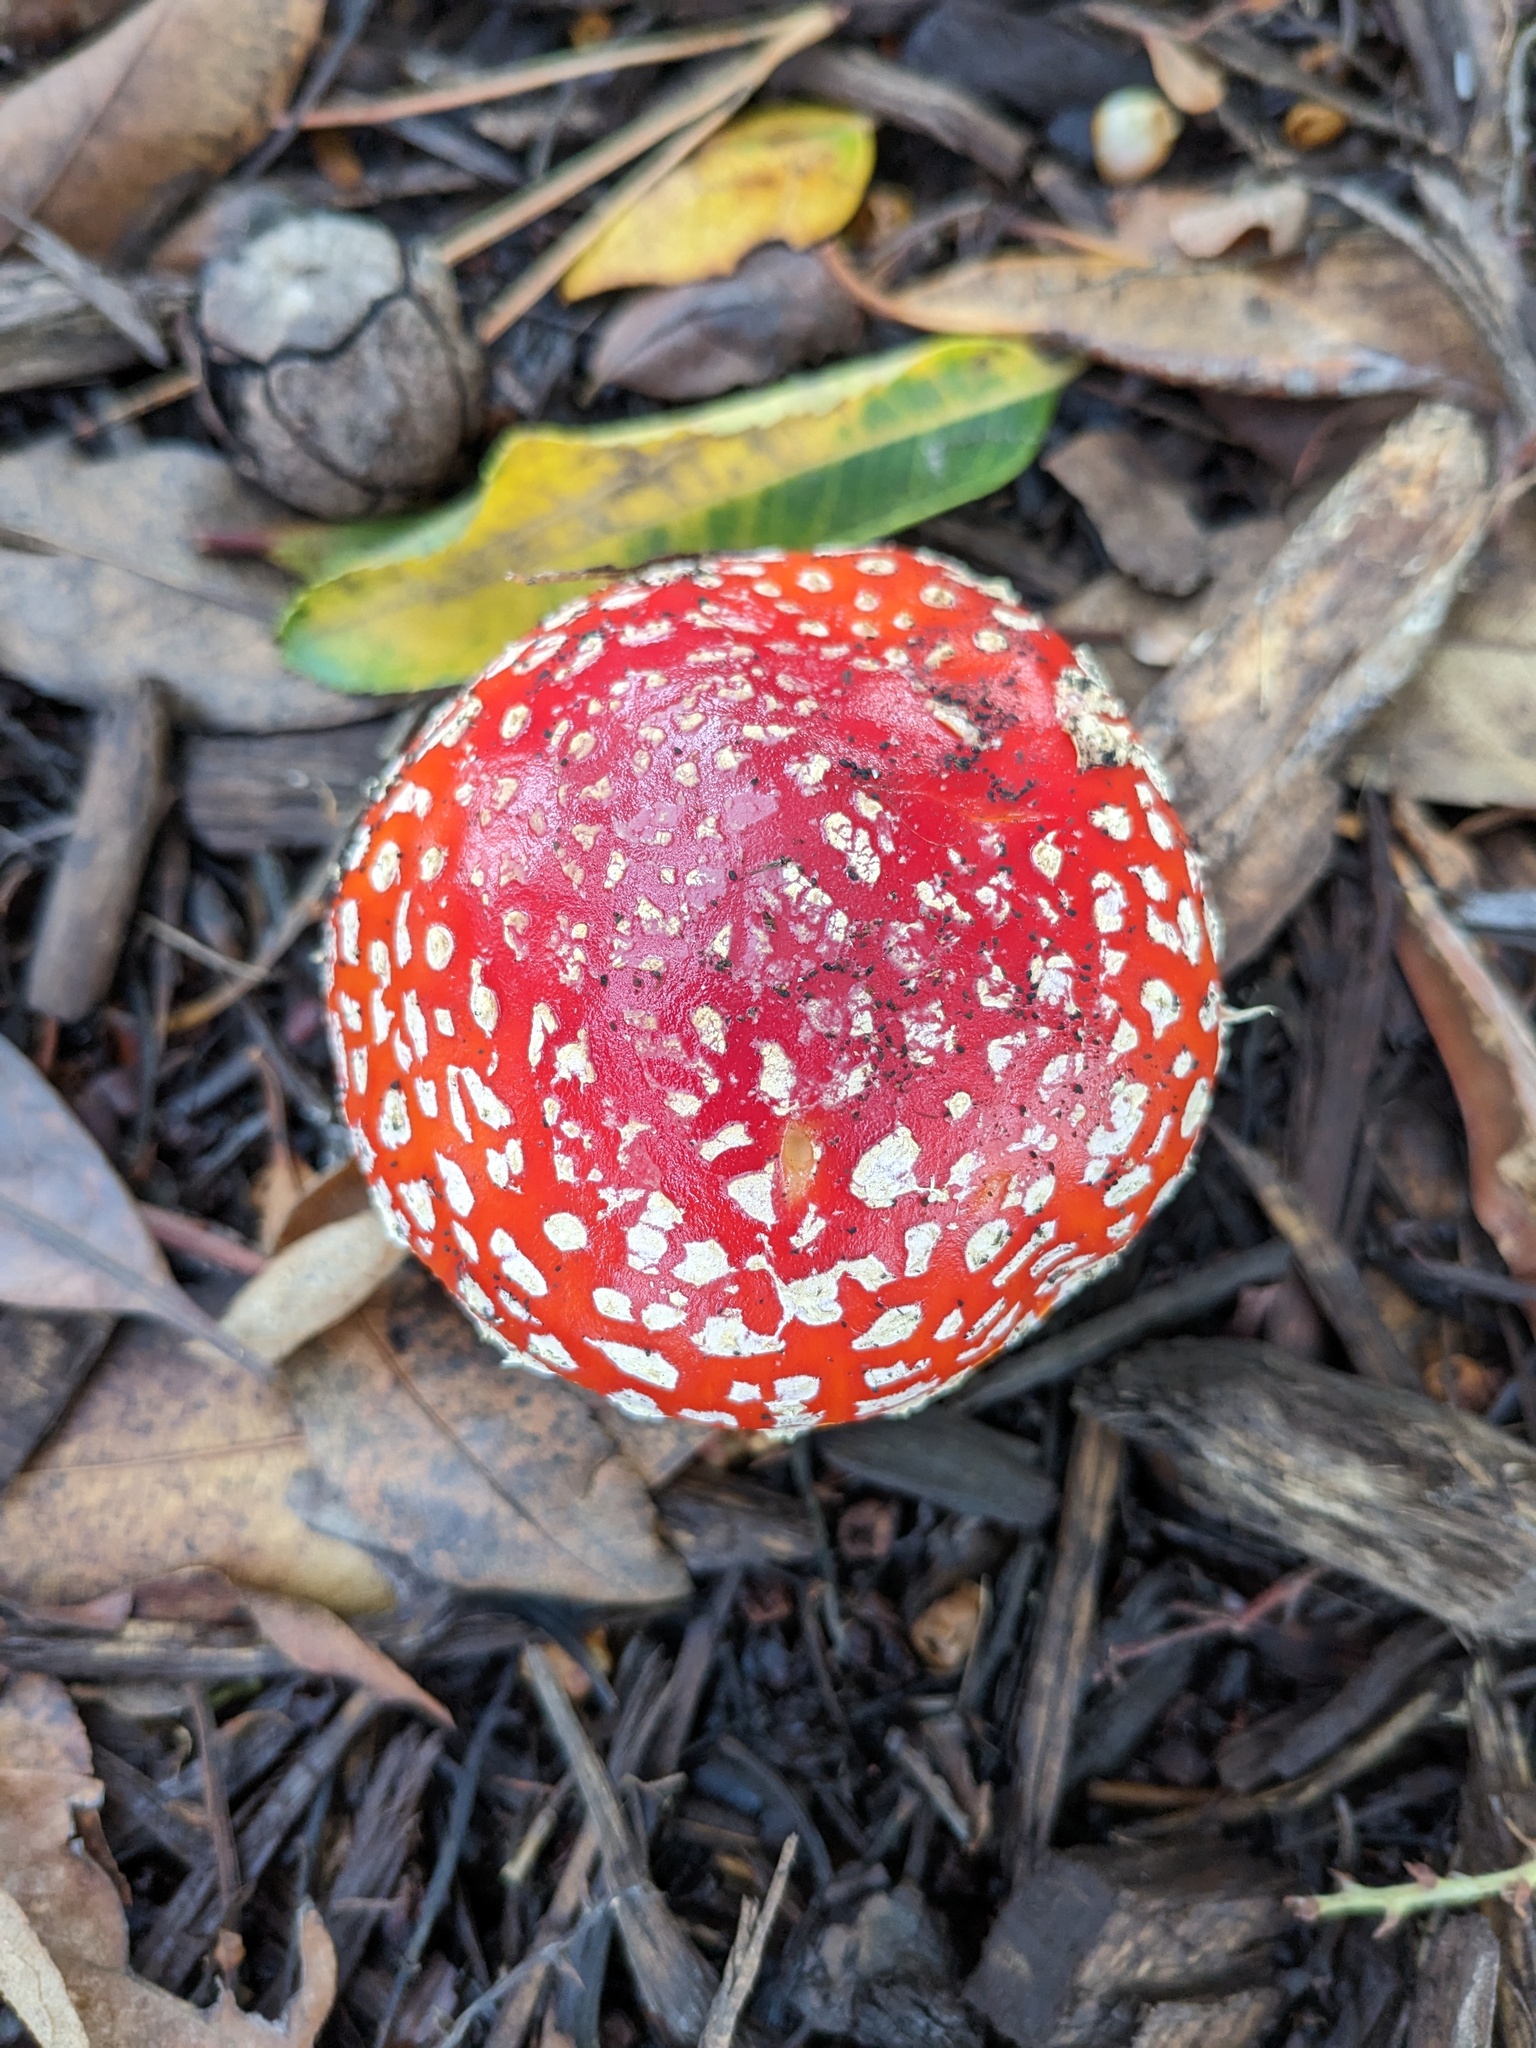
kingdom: Fungi
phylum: Basidiomycota
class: Agaricomycetes
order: Agaricales
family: Amanitaceae
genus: Amanita
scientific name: Amanita muscaria
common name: Fly agaric
